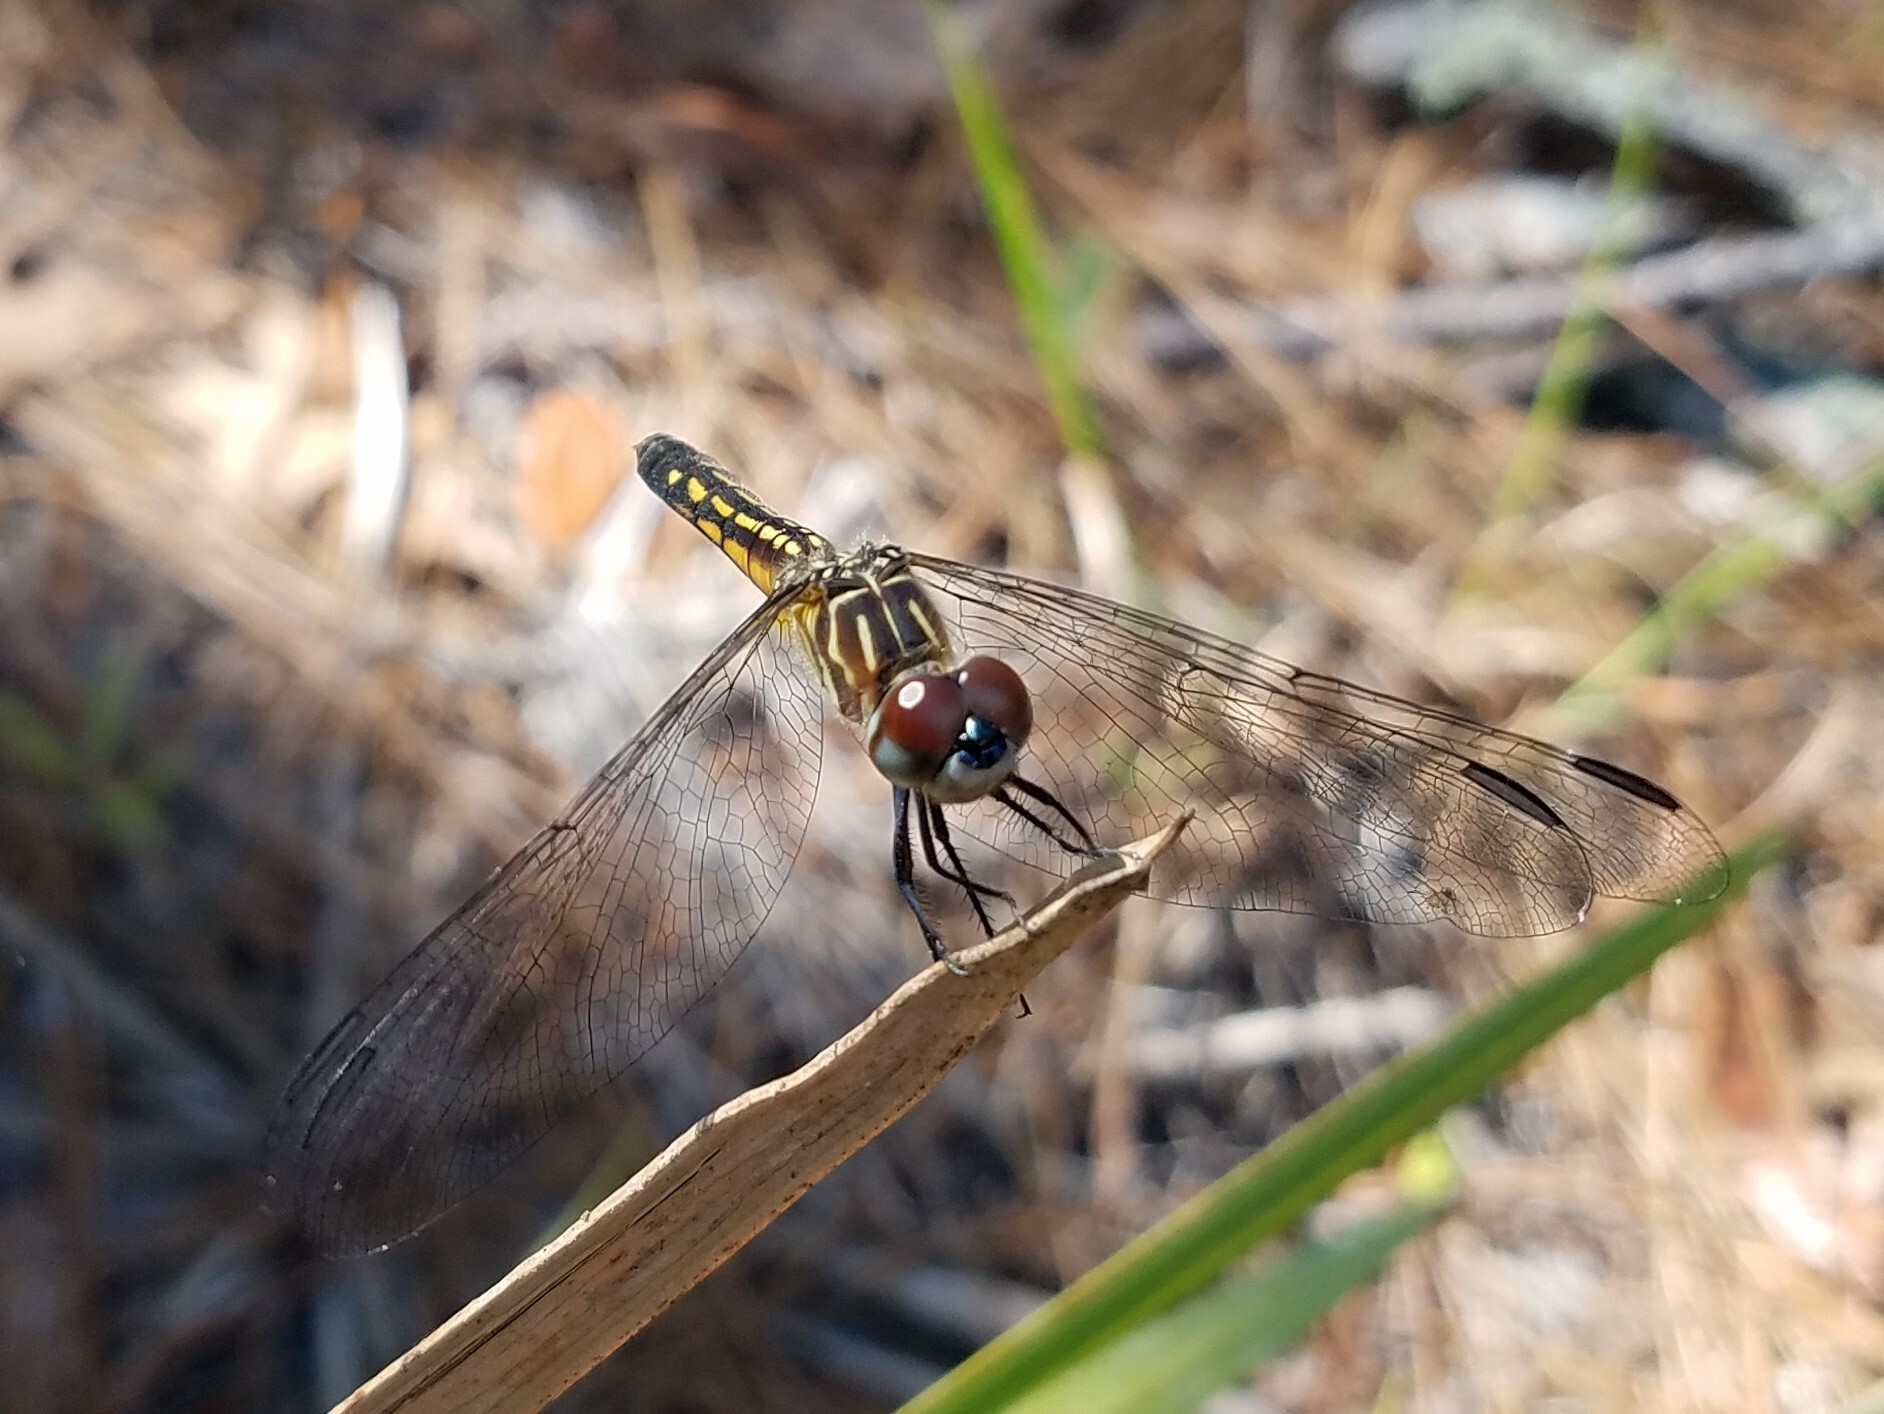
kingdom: Animalia
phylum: Arthropoda
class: Insecta
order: Odonata
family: Libellulidae
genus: Pachydiplax
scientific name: Pachydiplax longipennis
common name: Blue dasher
